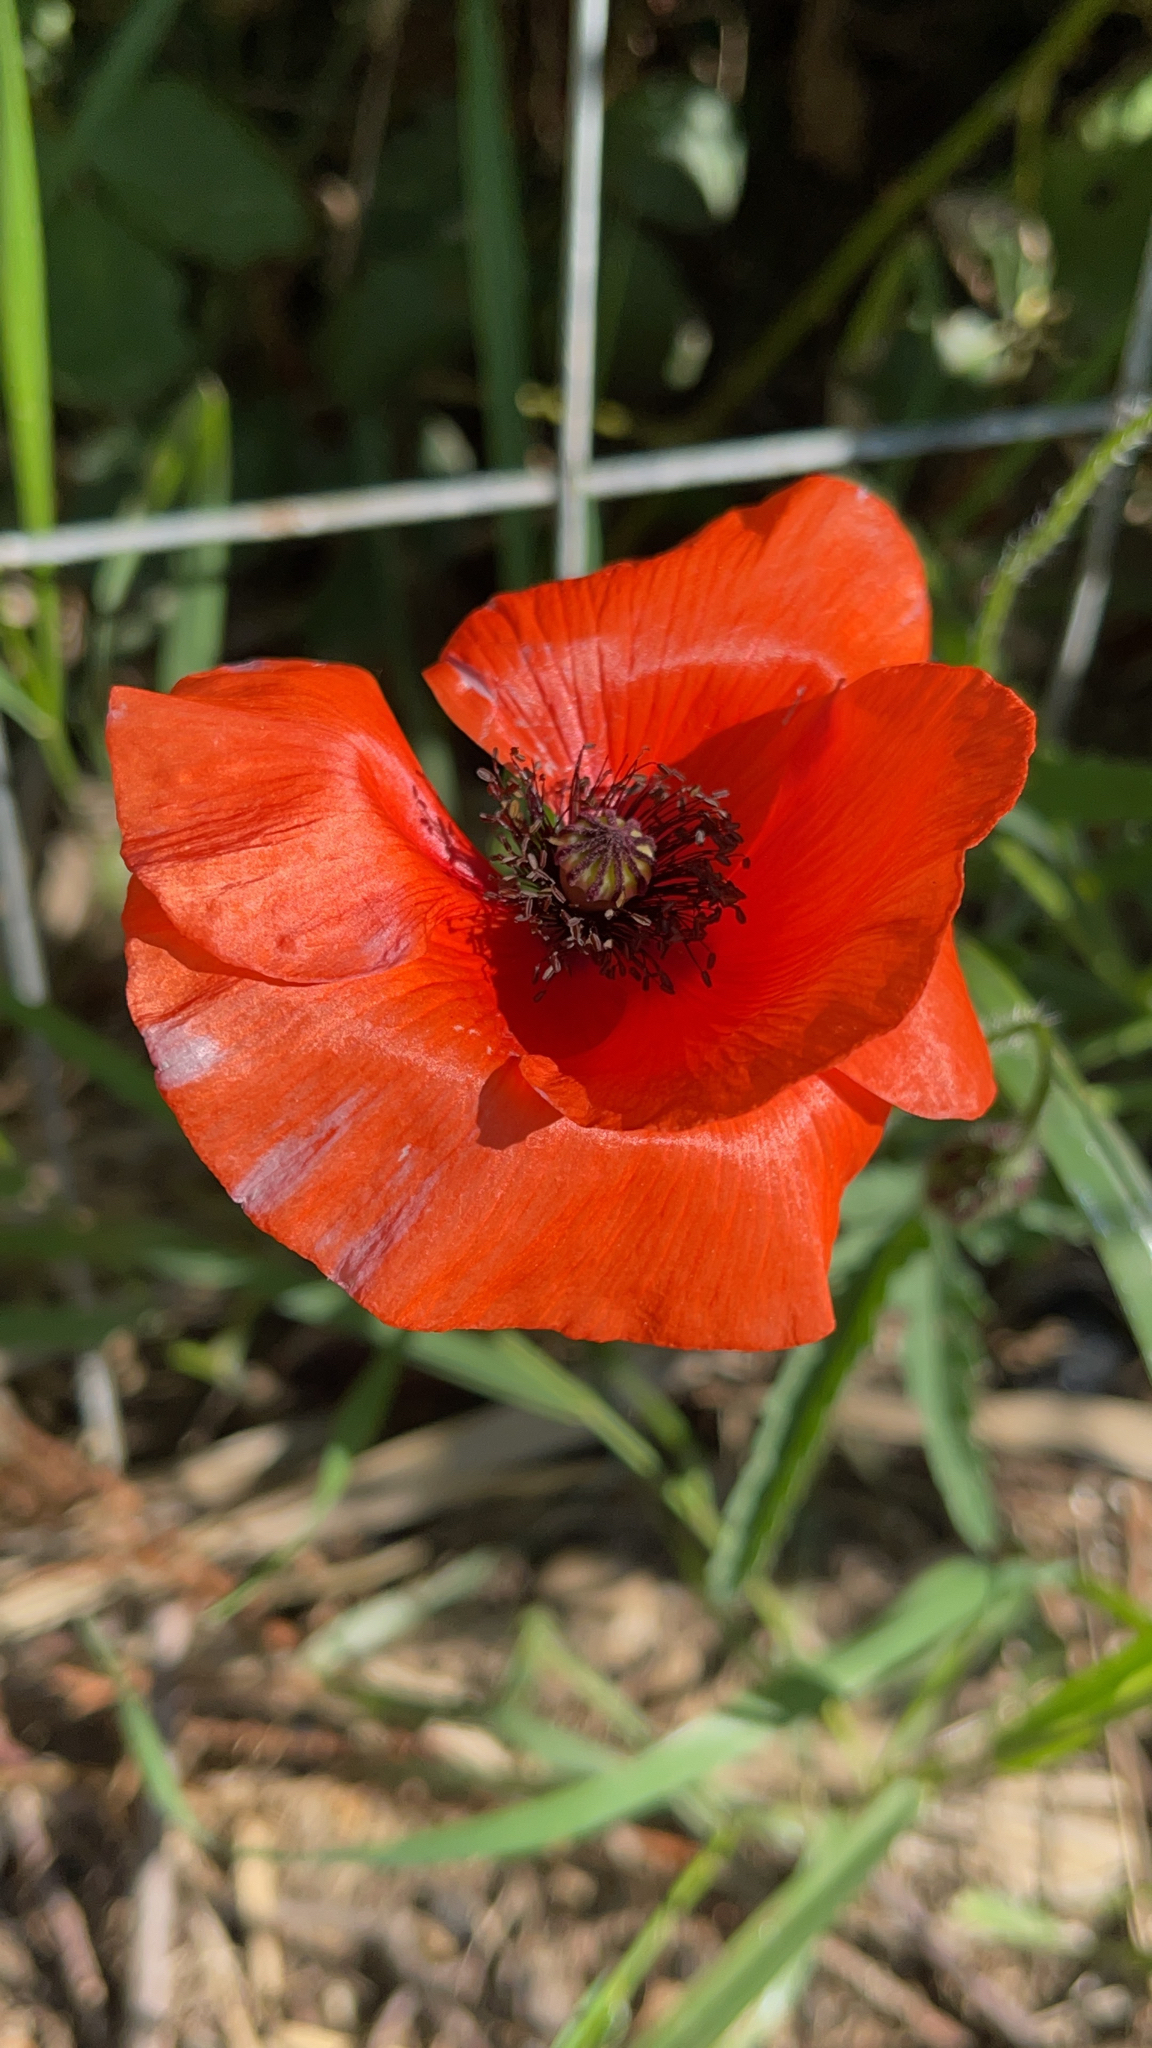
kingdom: Plantae
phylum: Tracheophyta
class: Magnoliopsida
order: Ranunculales
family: Papaveraceae
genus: Papaver
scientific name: Papaver rhoeas
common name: Corn poppy
